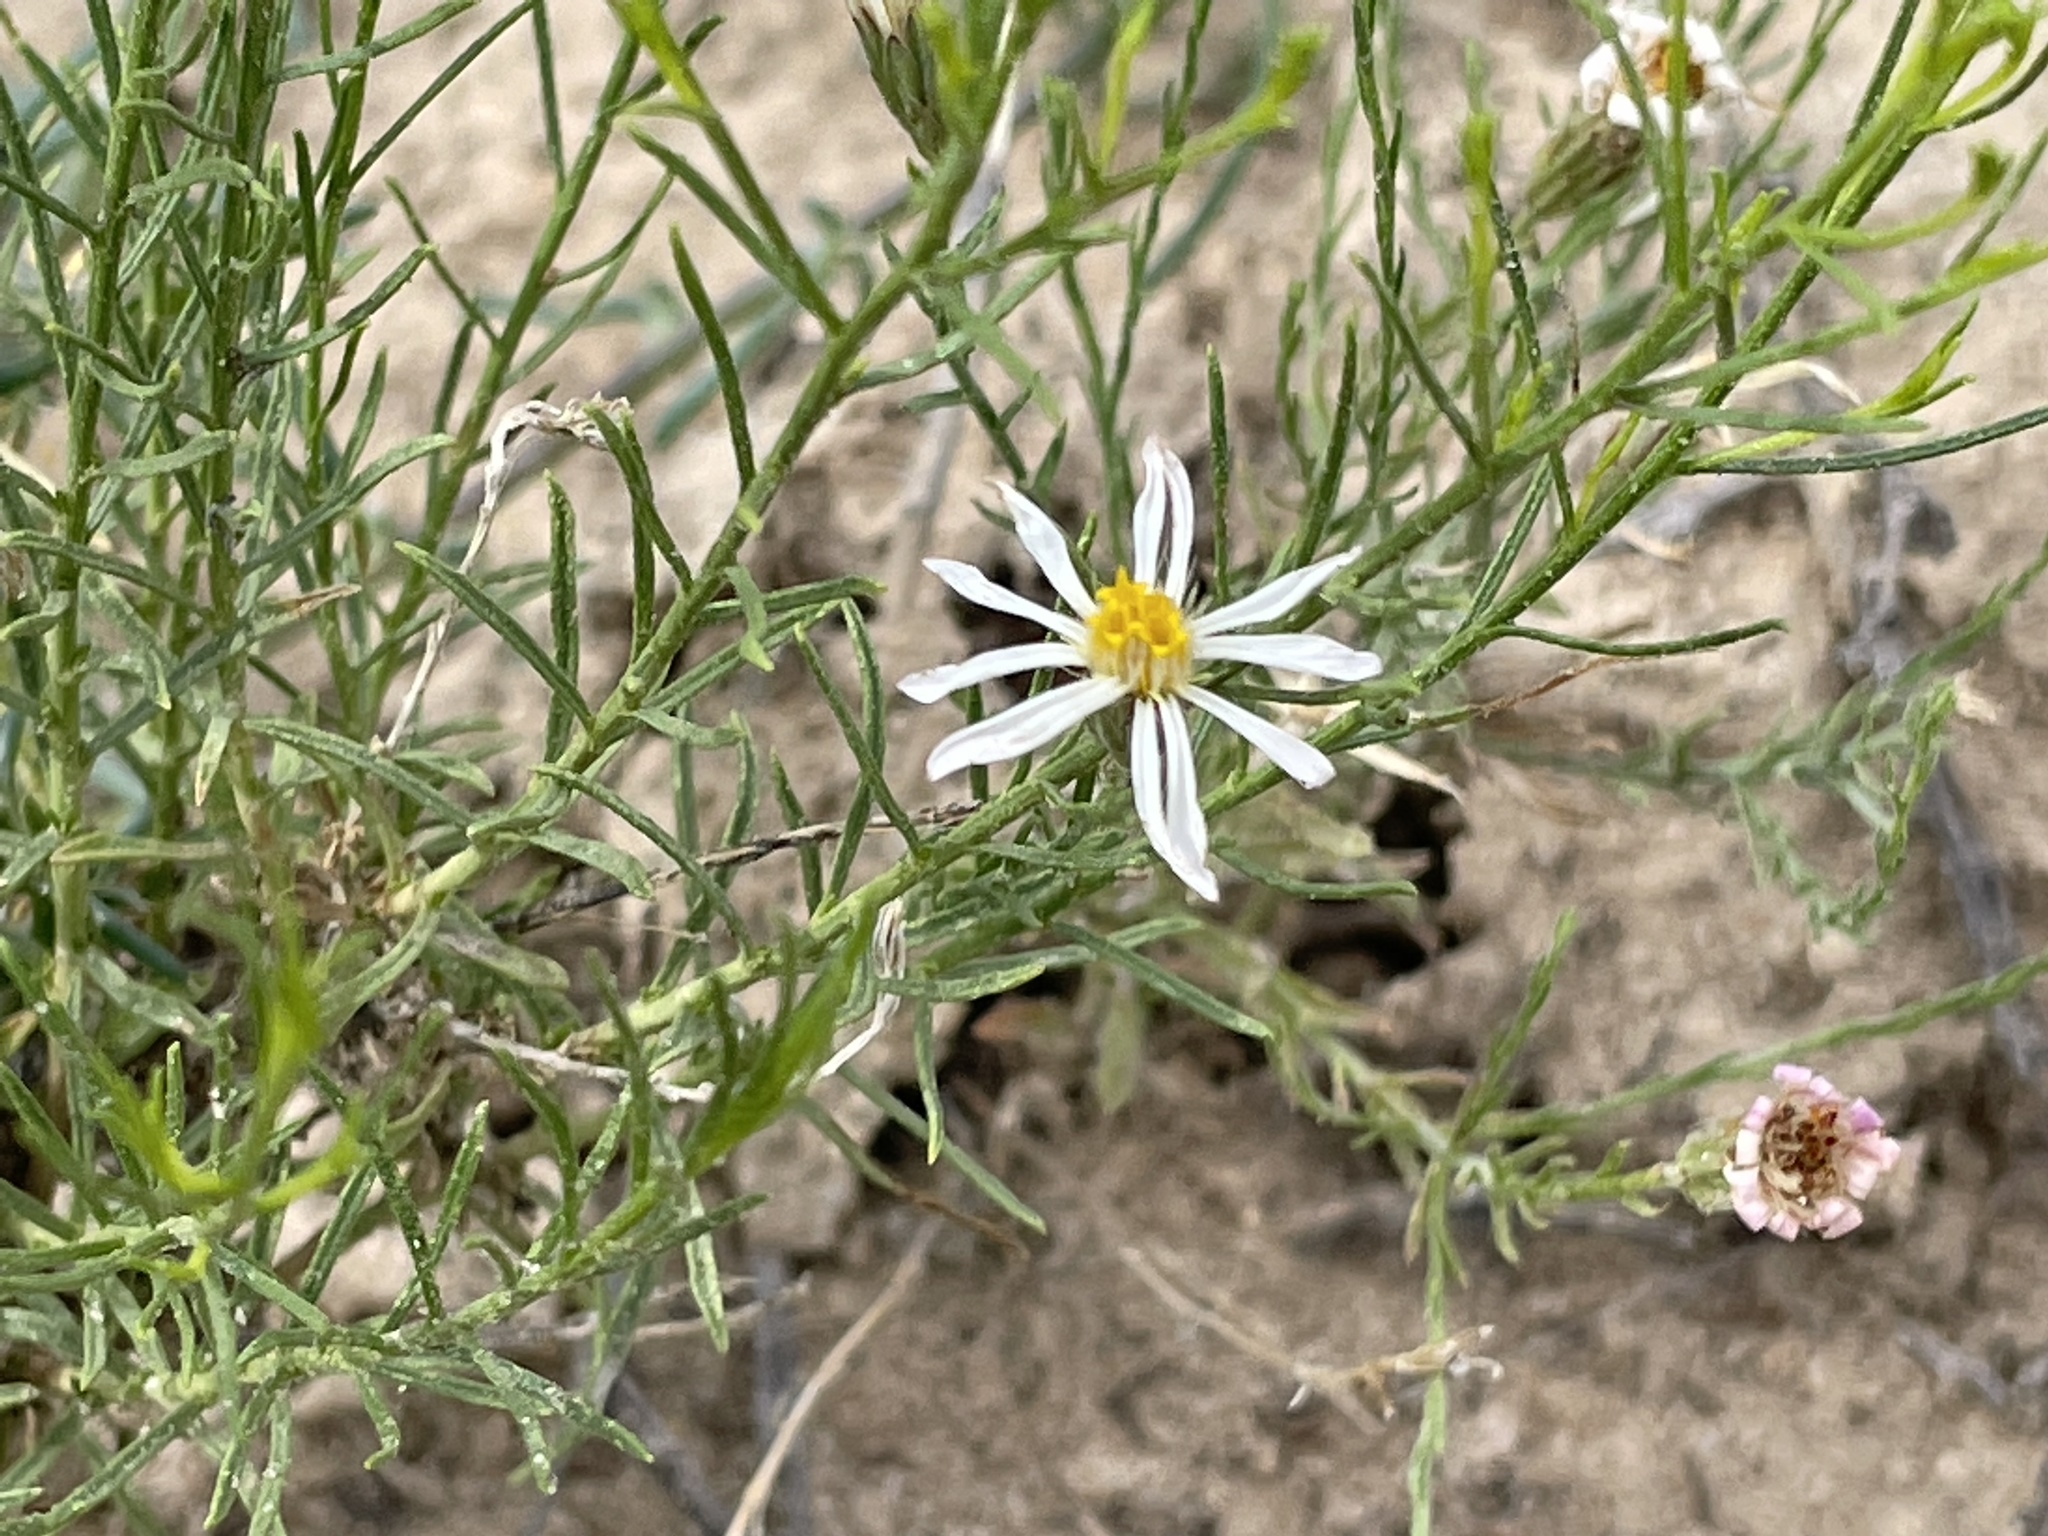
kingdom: Plantae
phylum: Tracheophyta
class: Magnoliopsida
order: Asterales
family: Asteraceae
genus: Chaetopappa
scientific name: Chaetopappa ericoides
